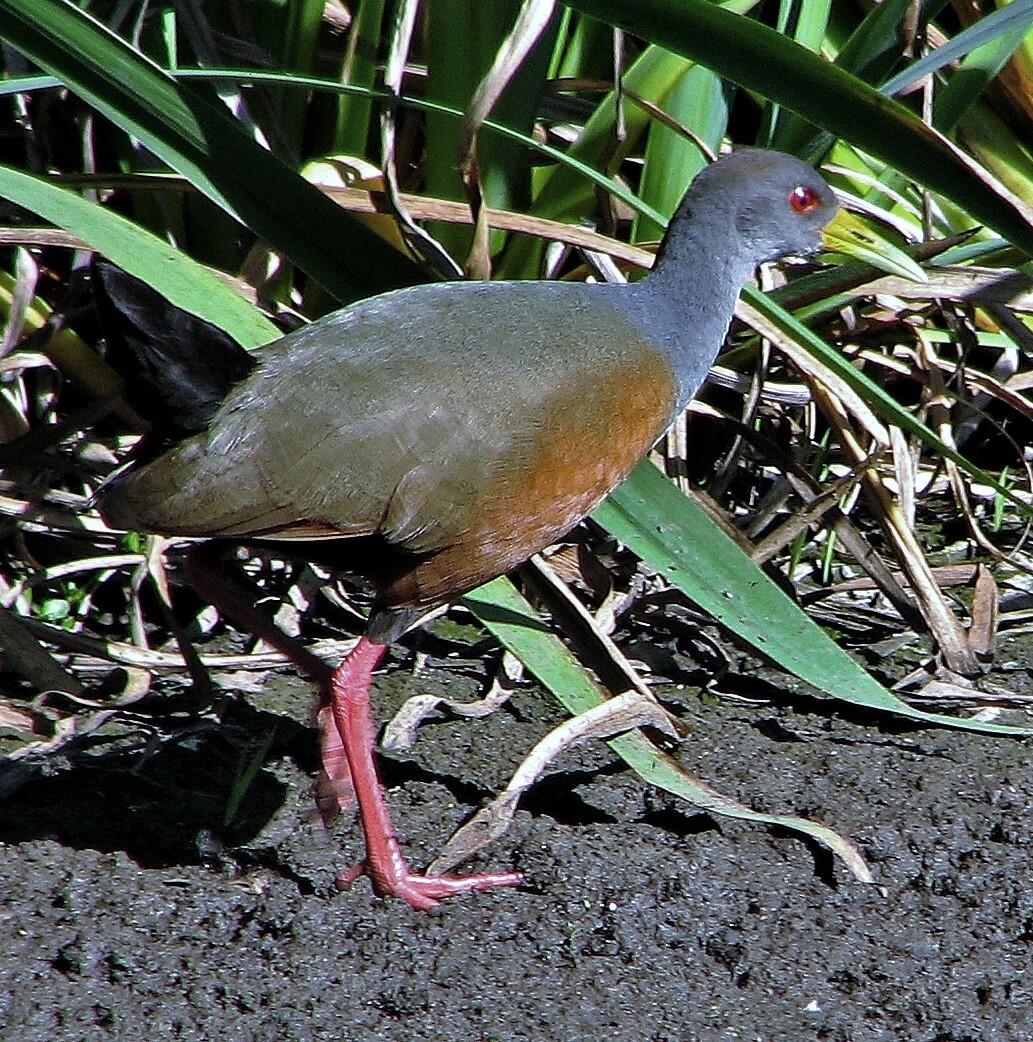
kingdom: Animalia
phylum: Chordata
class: Aves
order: Gruiformes
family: Rallidae
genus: Aramides
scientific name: Aramides cajanea
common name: Gray-necked wood-rail
